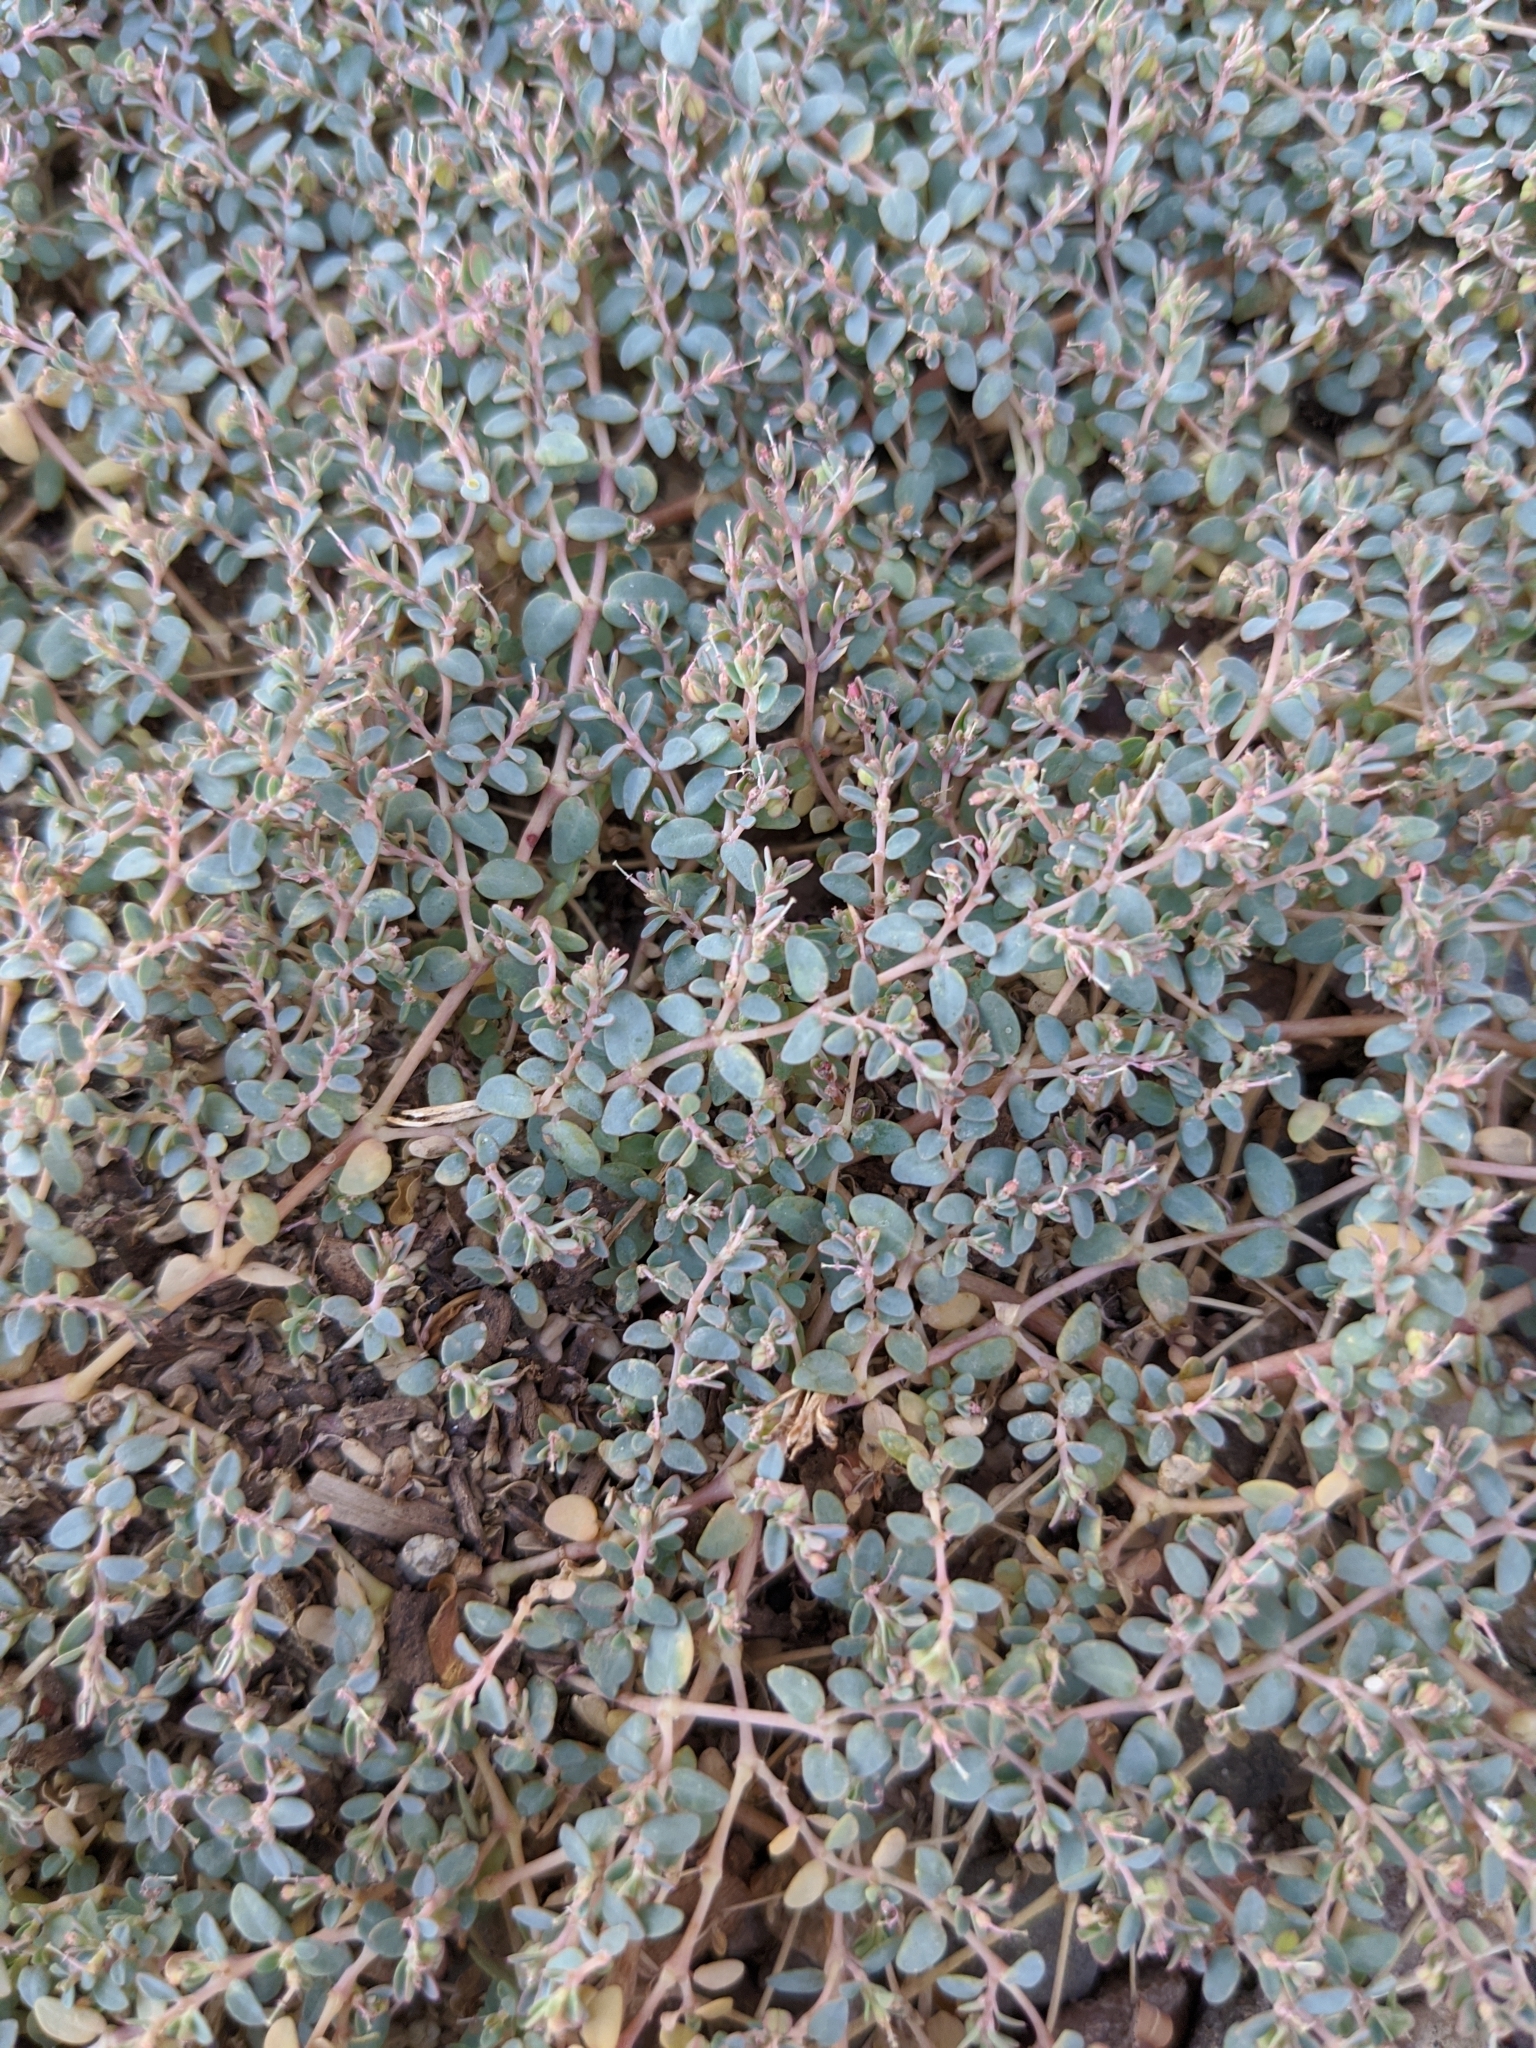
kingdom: Plantae
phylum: Tracheophyta
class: Magnoliopsida
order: Malpighiales
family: Euphorbiaceae
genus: Euphorbia
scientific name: Euphorbia micromera
